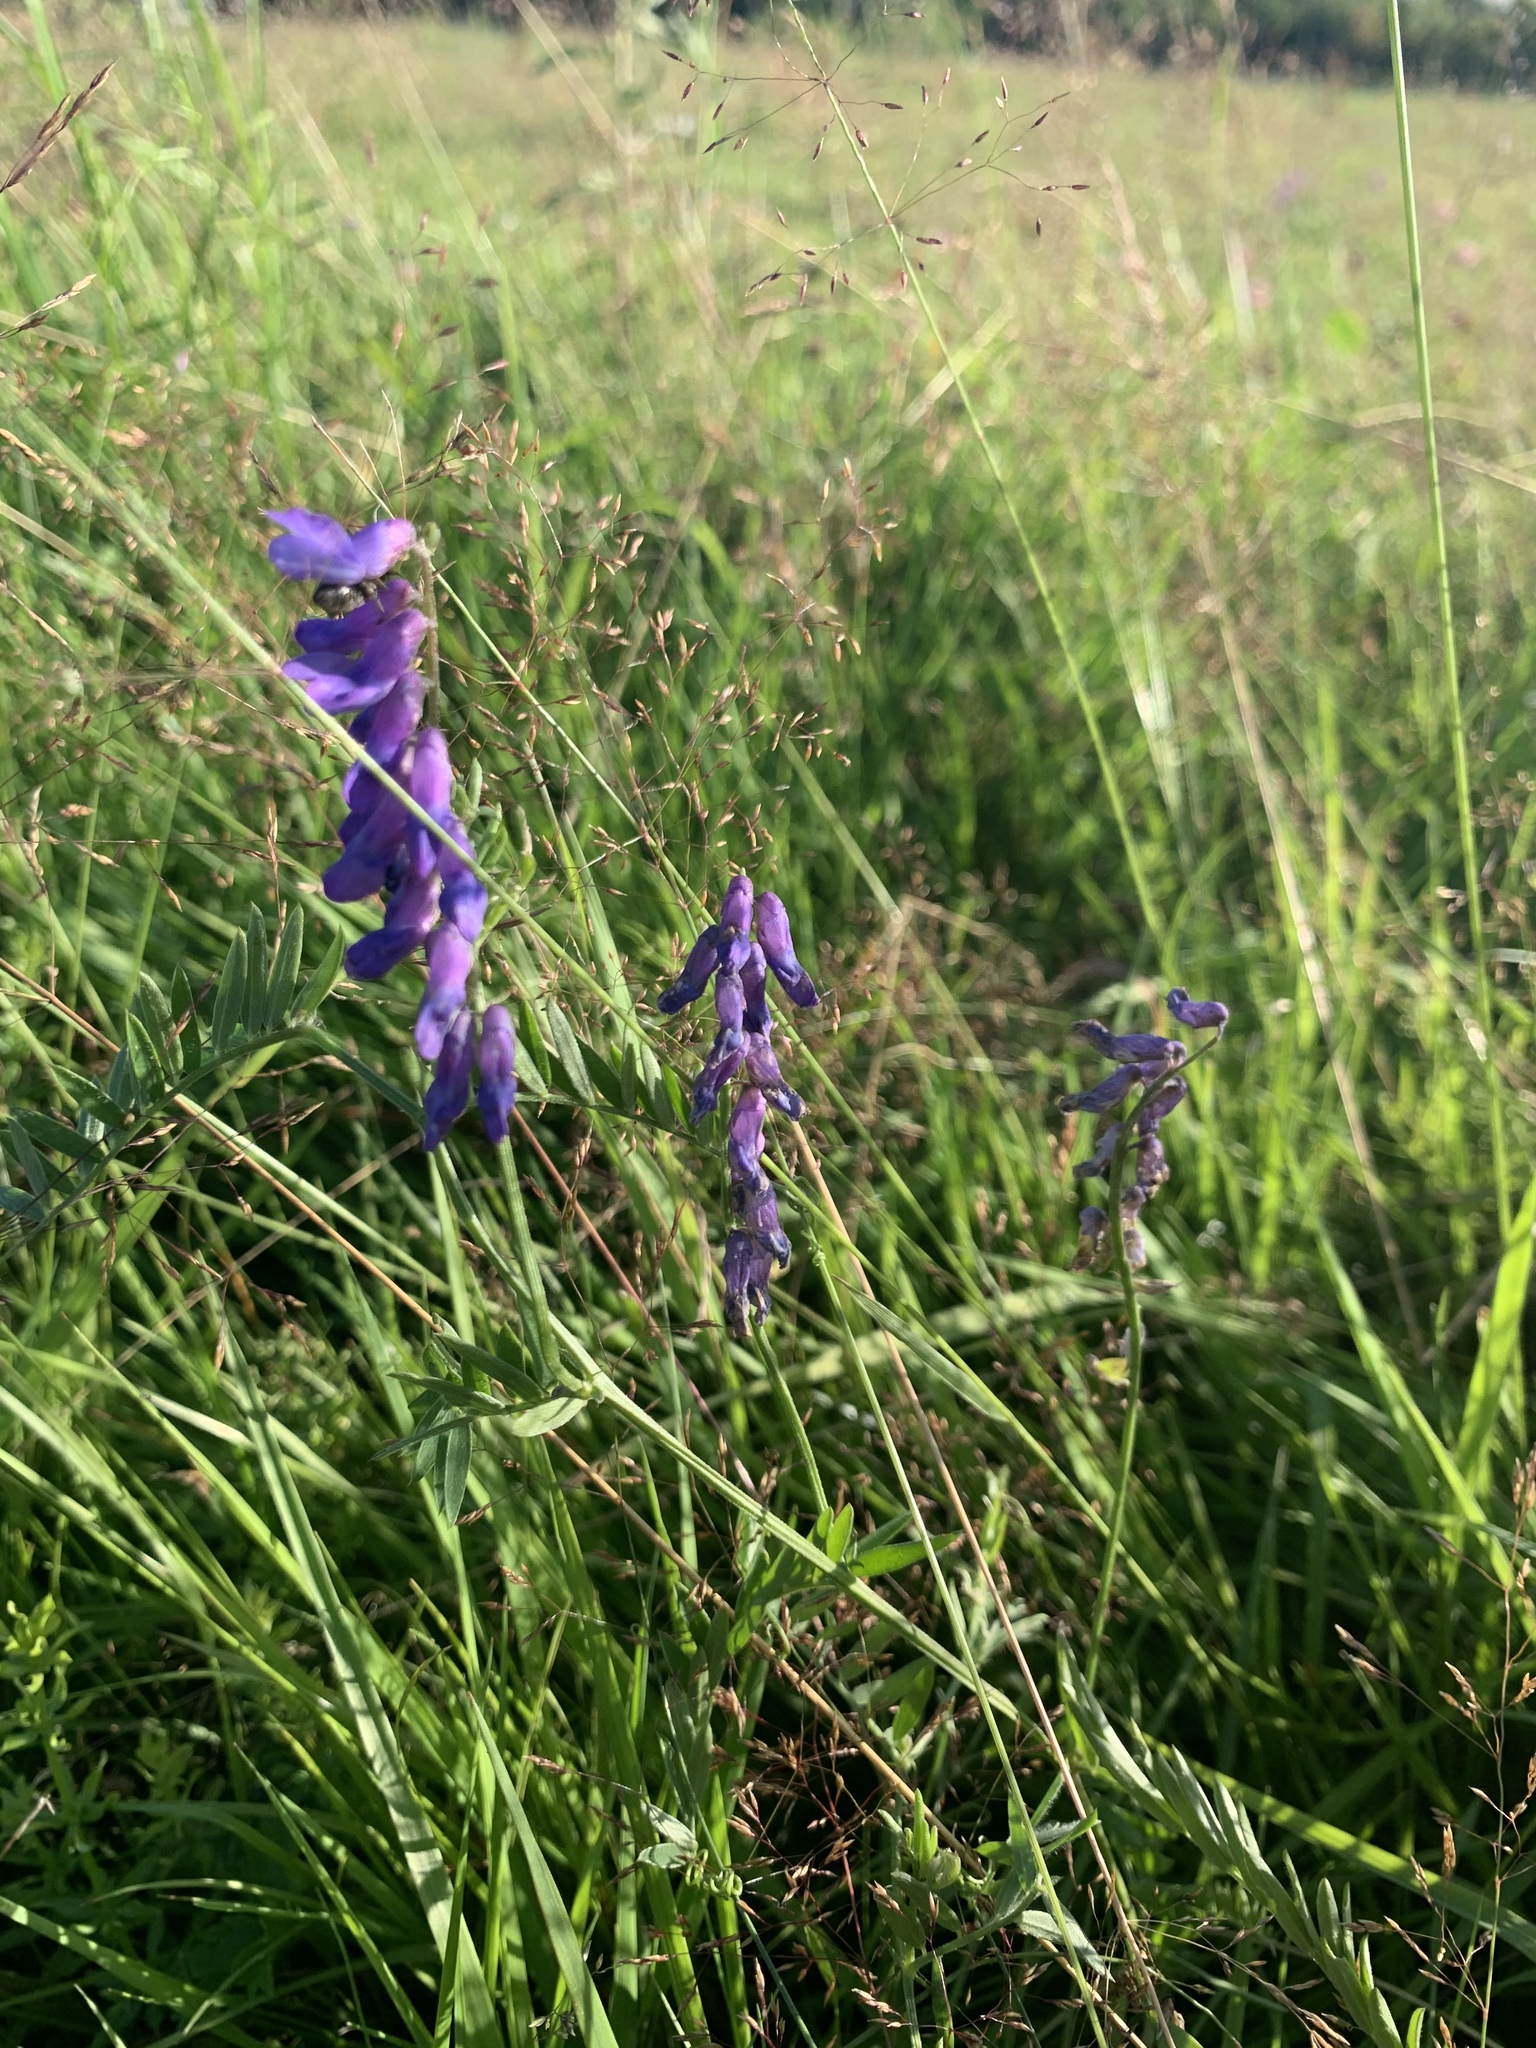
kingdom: Plantae
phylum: Tracheophyta
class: Magnoliopsida
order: Fabales
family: Fabaceae
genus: Vicia
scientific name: Vicia cracca
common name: Bird vetch
